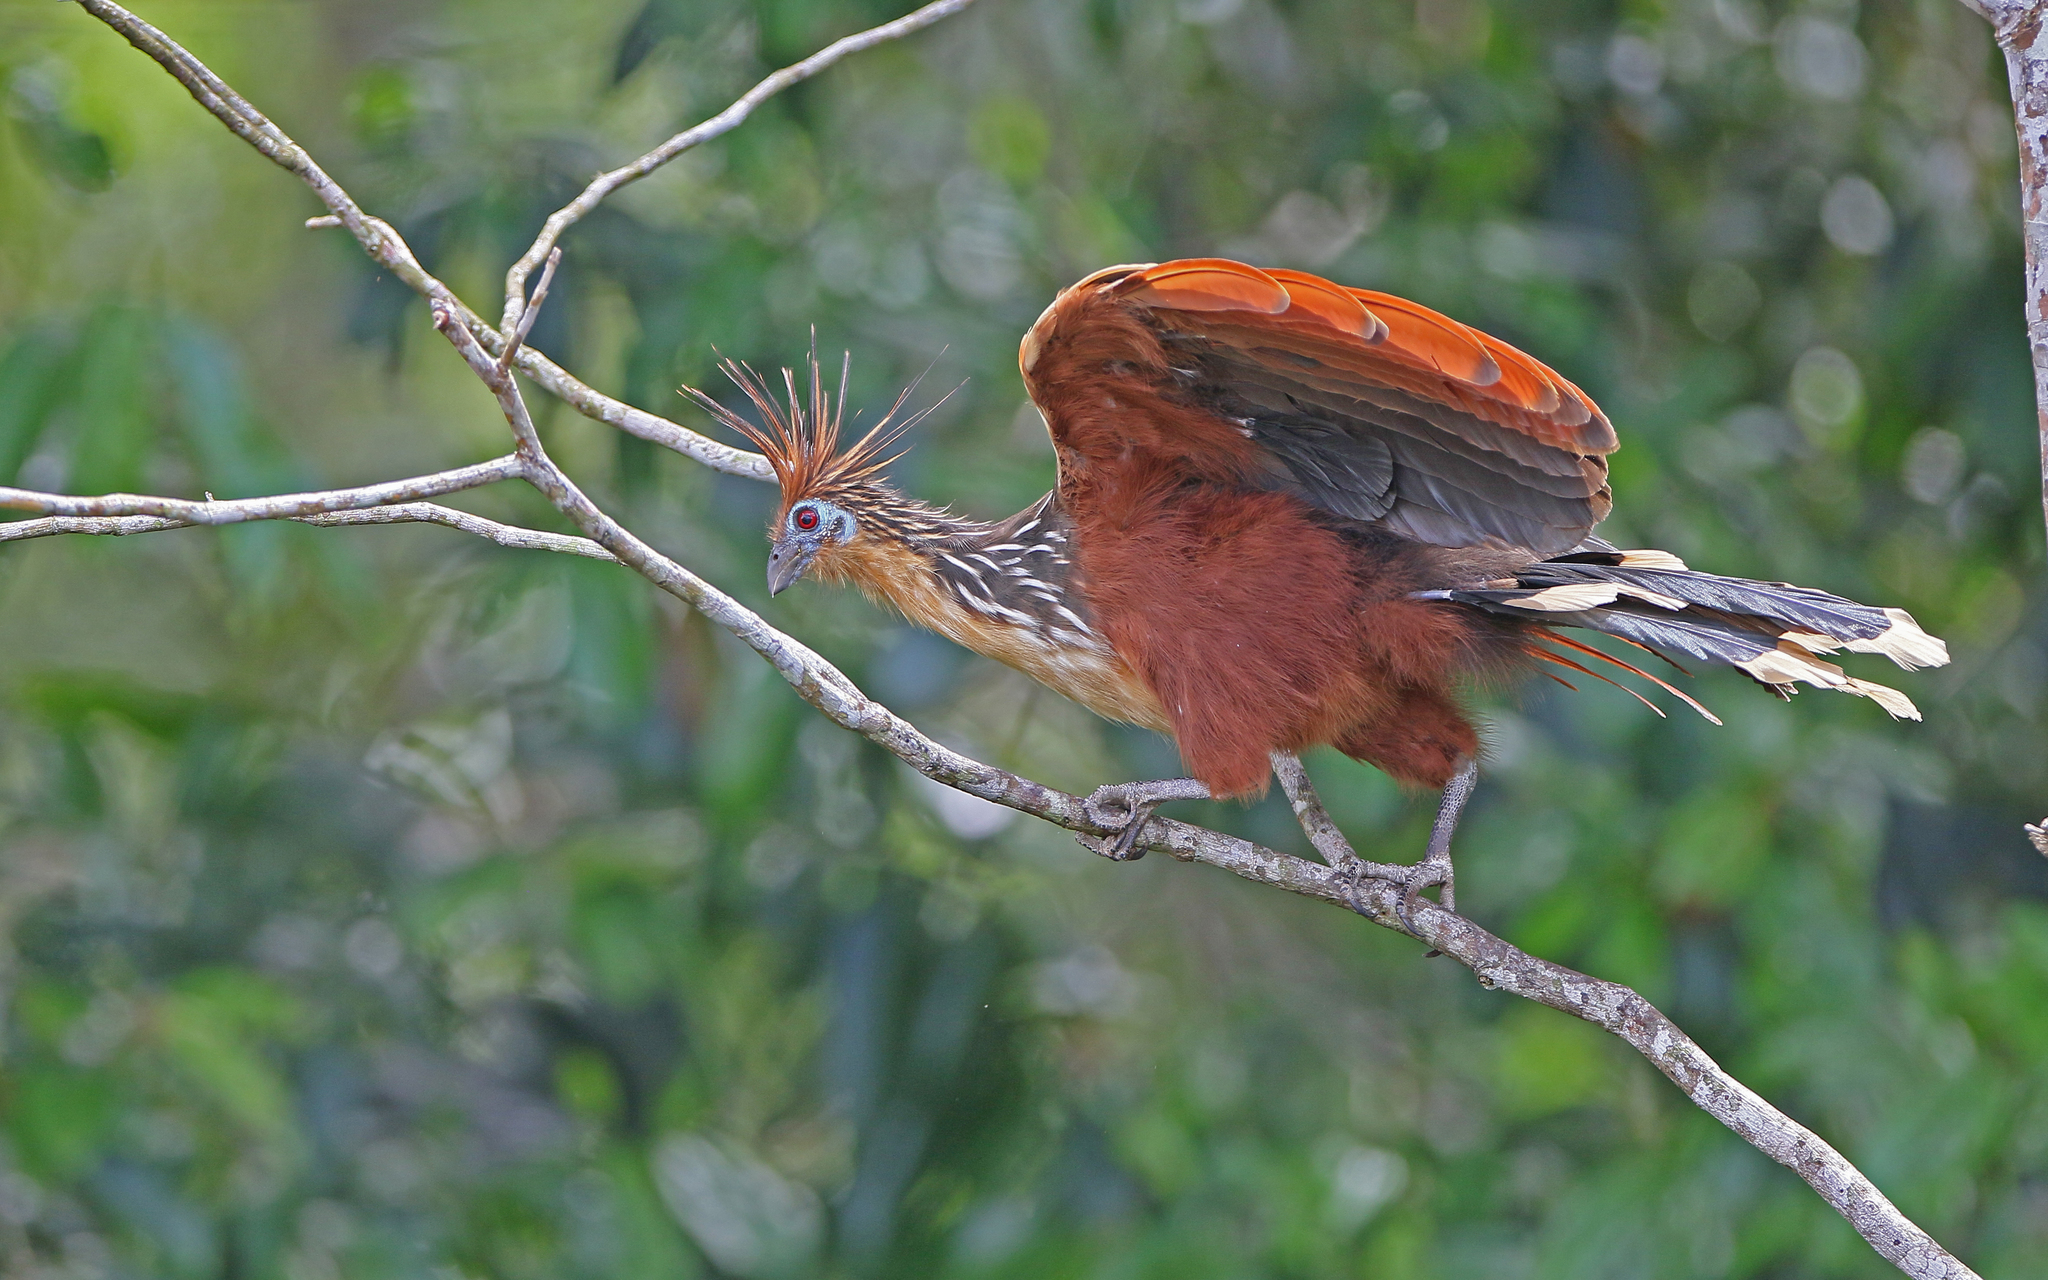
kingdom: Animalia
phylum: Chordata
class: Aves
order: Opisthocomiformes
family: Opisthocomidae
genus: Opisthocomus
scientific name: Opisthocomus hoazin
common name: Hoatzin
